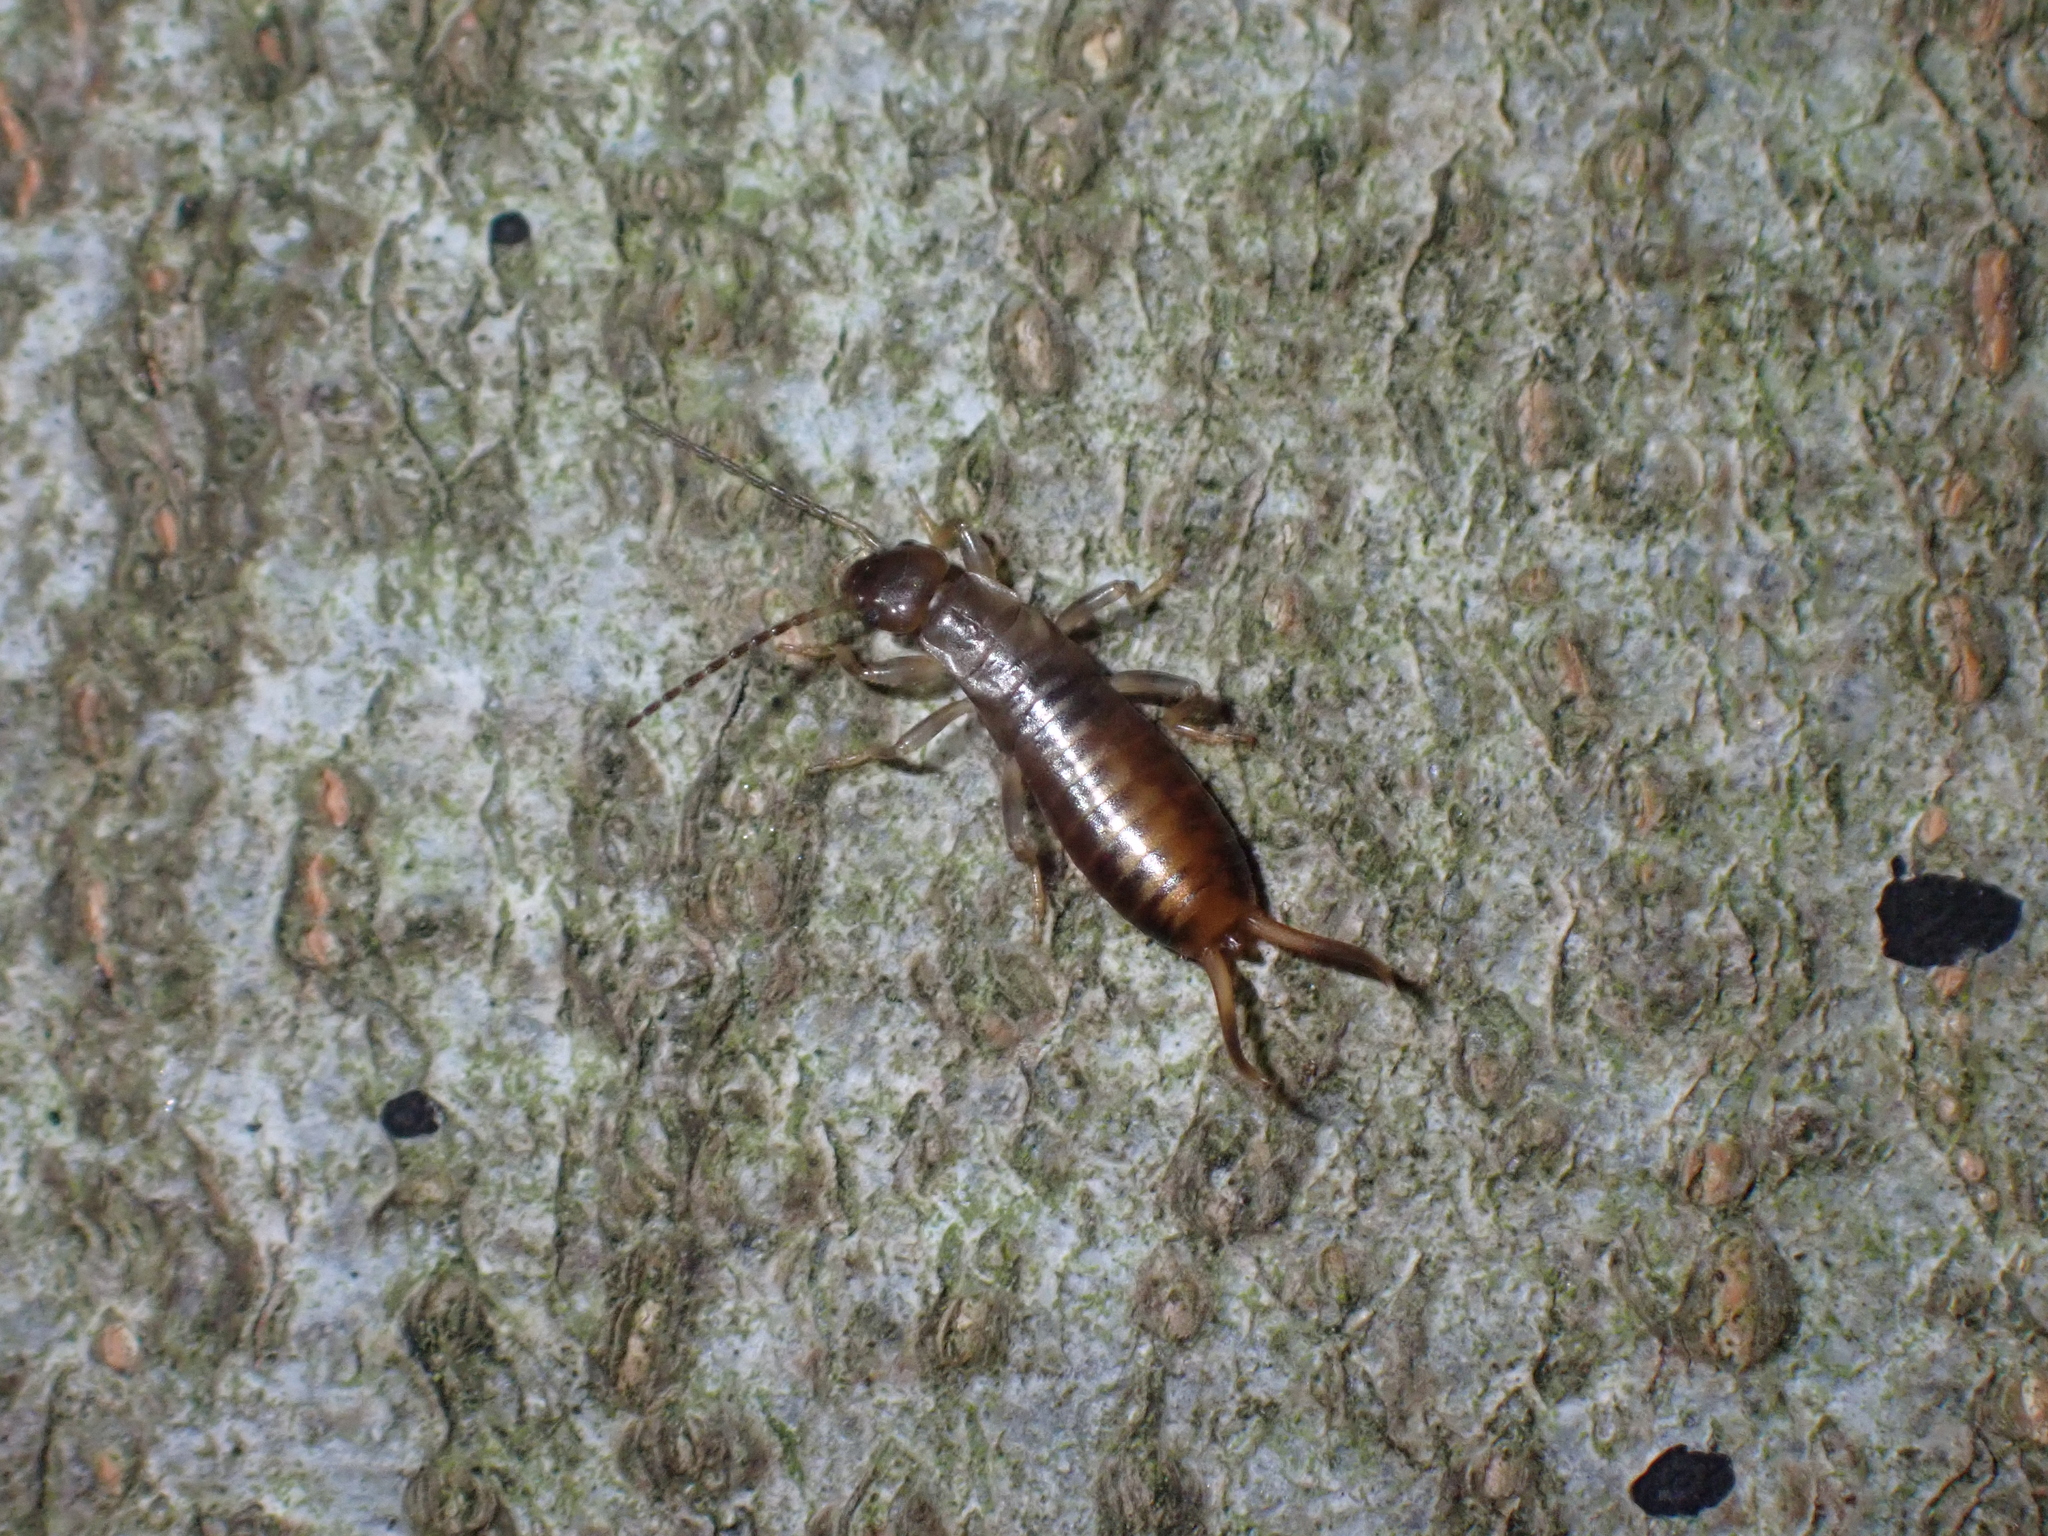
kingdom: Animalia
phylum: Arthropoda
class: Insecta
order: Dermaptera
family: Forficulidae
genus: Chelidurella
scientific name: Chelidurella acanthopygia
